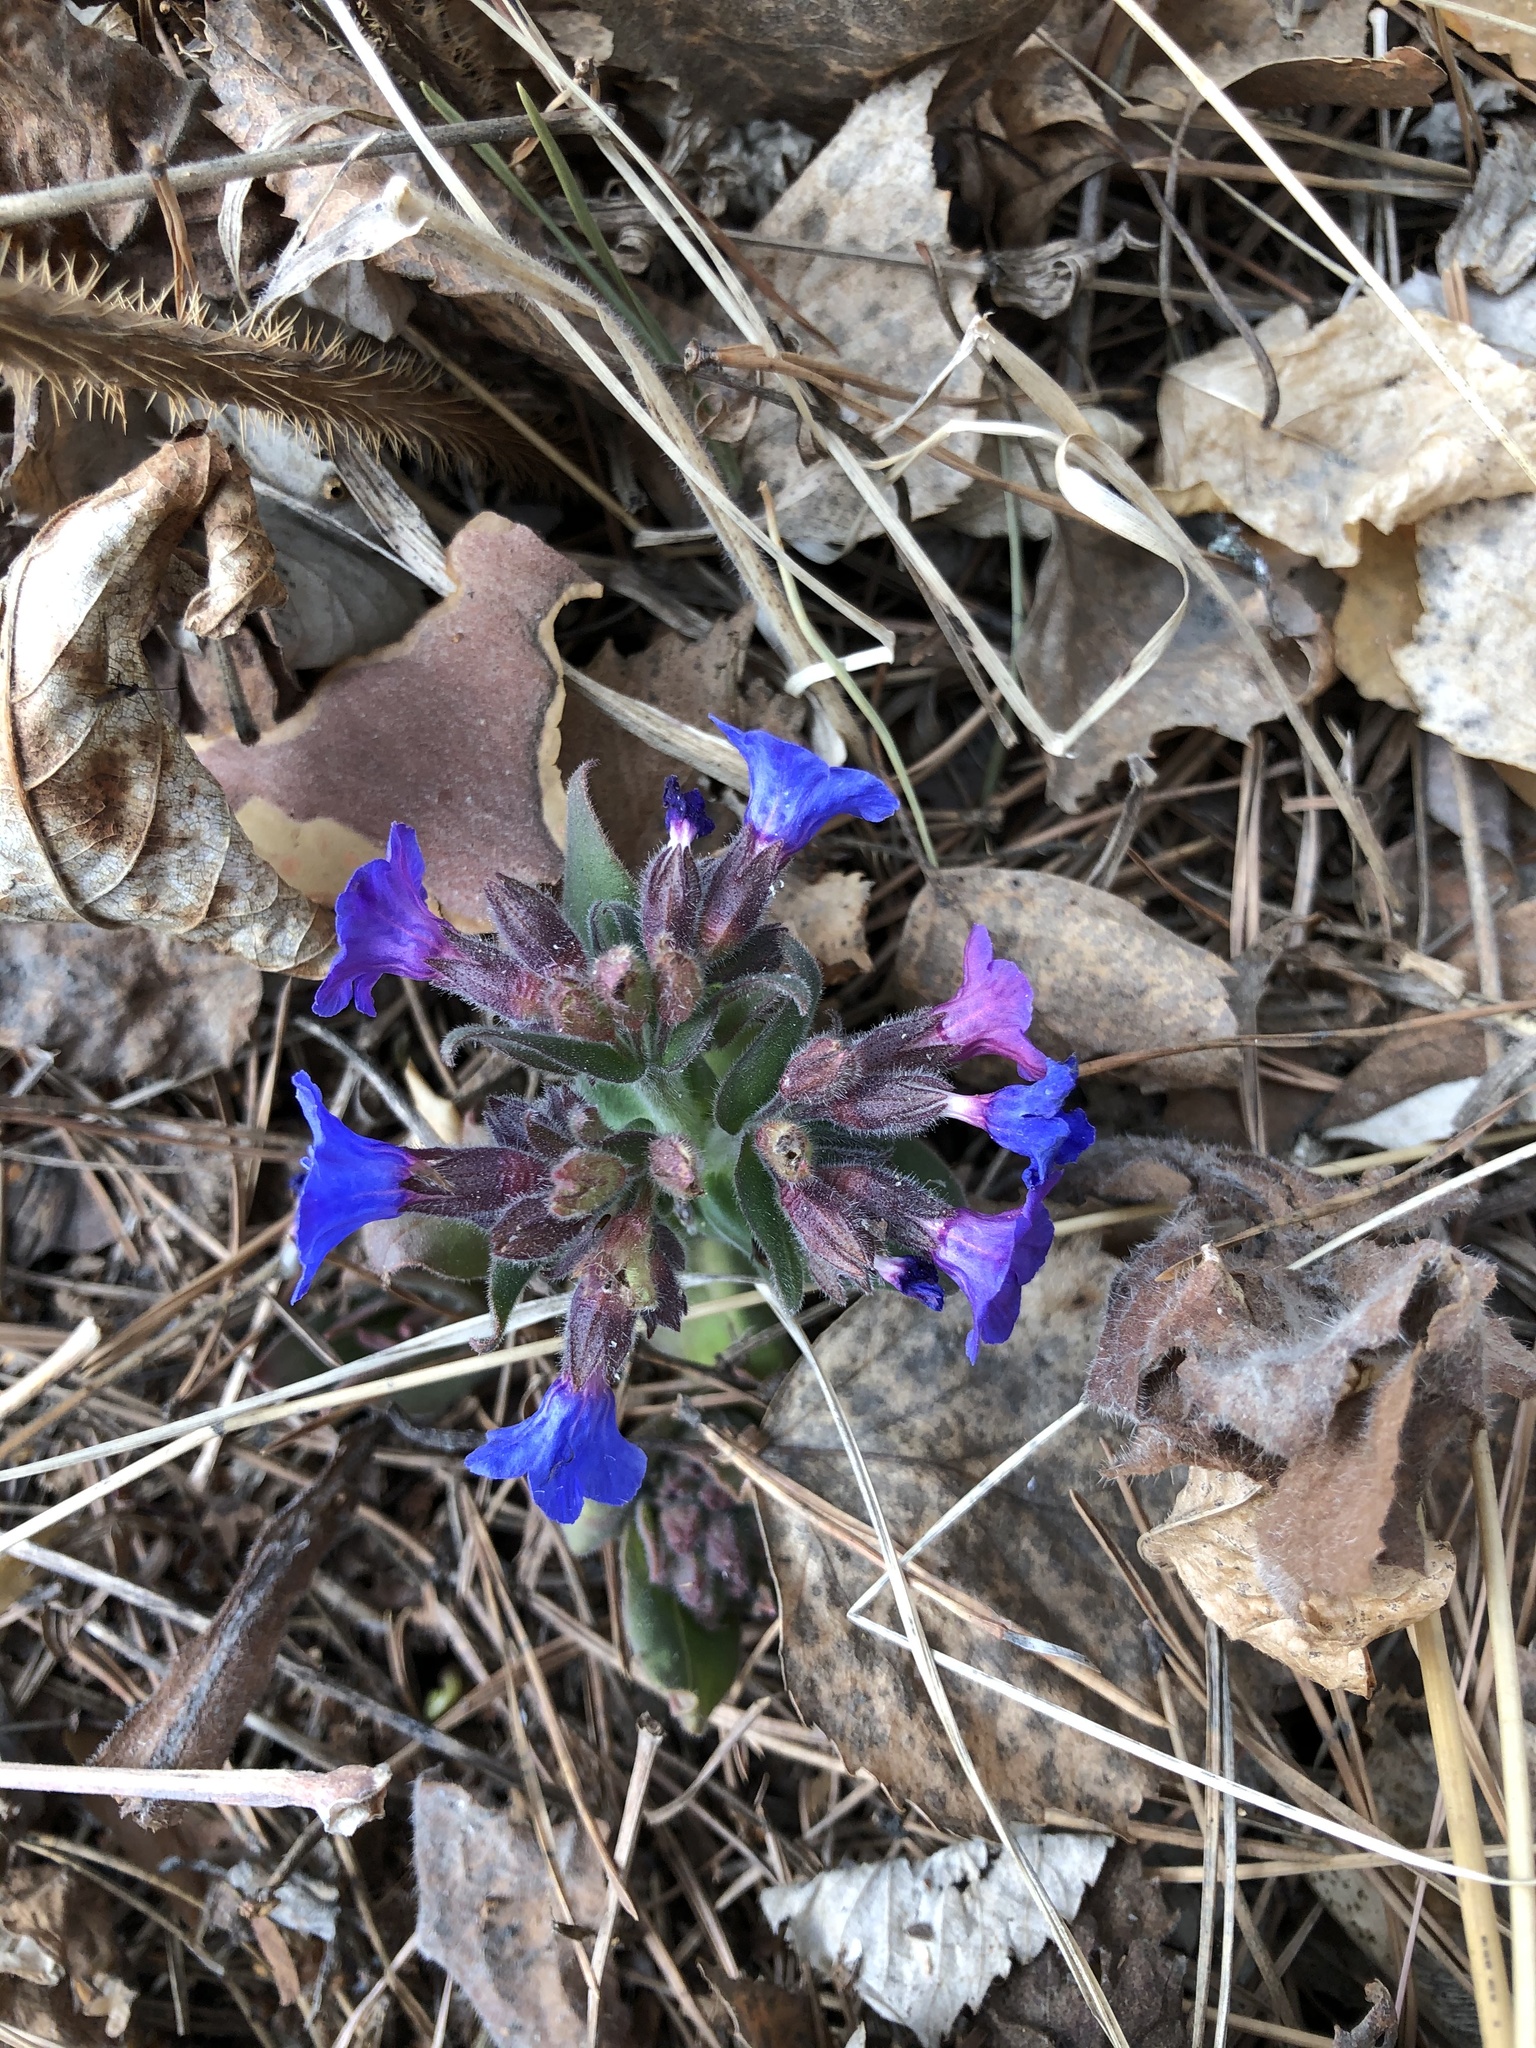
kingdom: Plantae
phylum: Tracheophyta
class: Magnoliopsida
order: Boraginales
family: Boraginaceae
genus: Pulmonaria
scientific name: Pulmonaria mollis
